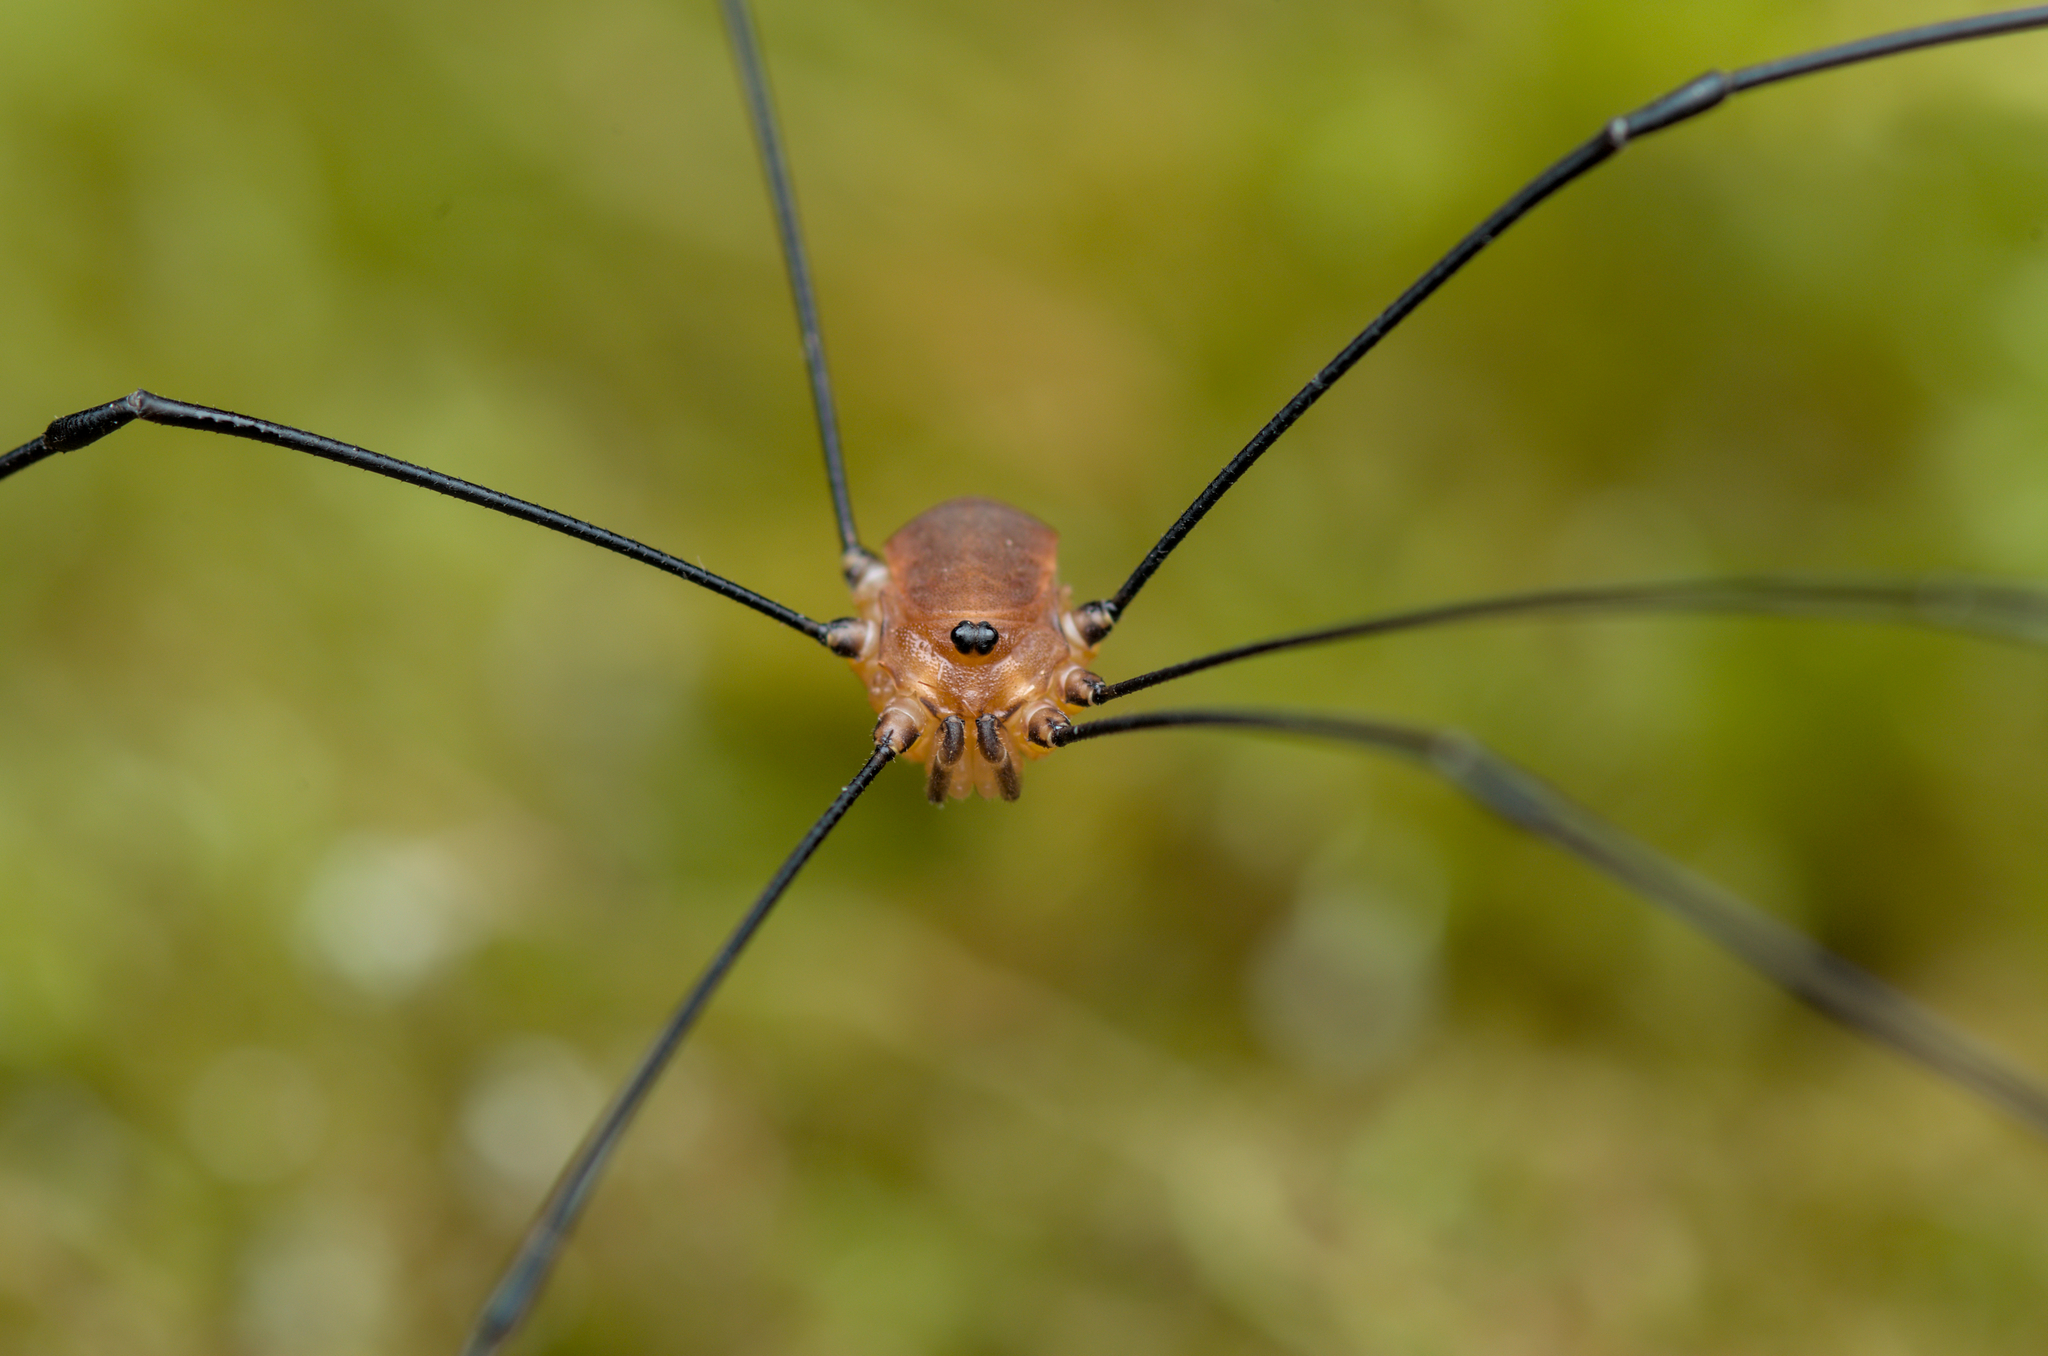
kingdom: Animalia
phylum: Arthropoda
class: Arachnida
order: Opiliones
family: Sclerosomatidae
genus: Leiobunum
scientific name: Leiobunum rotundum
